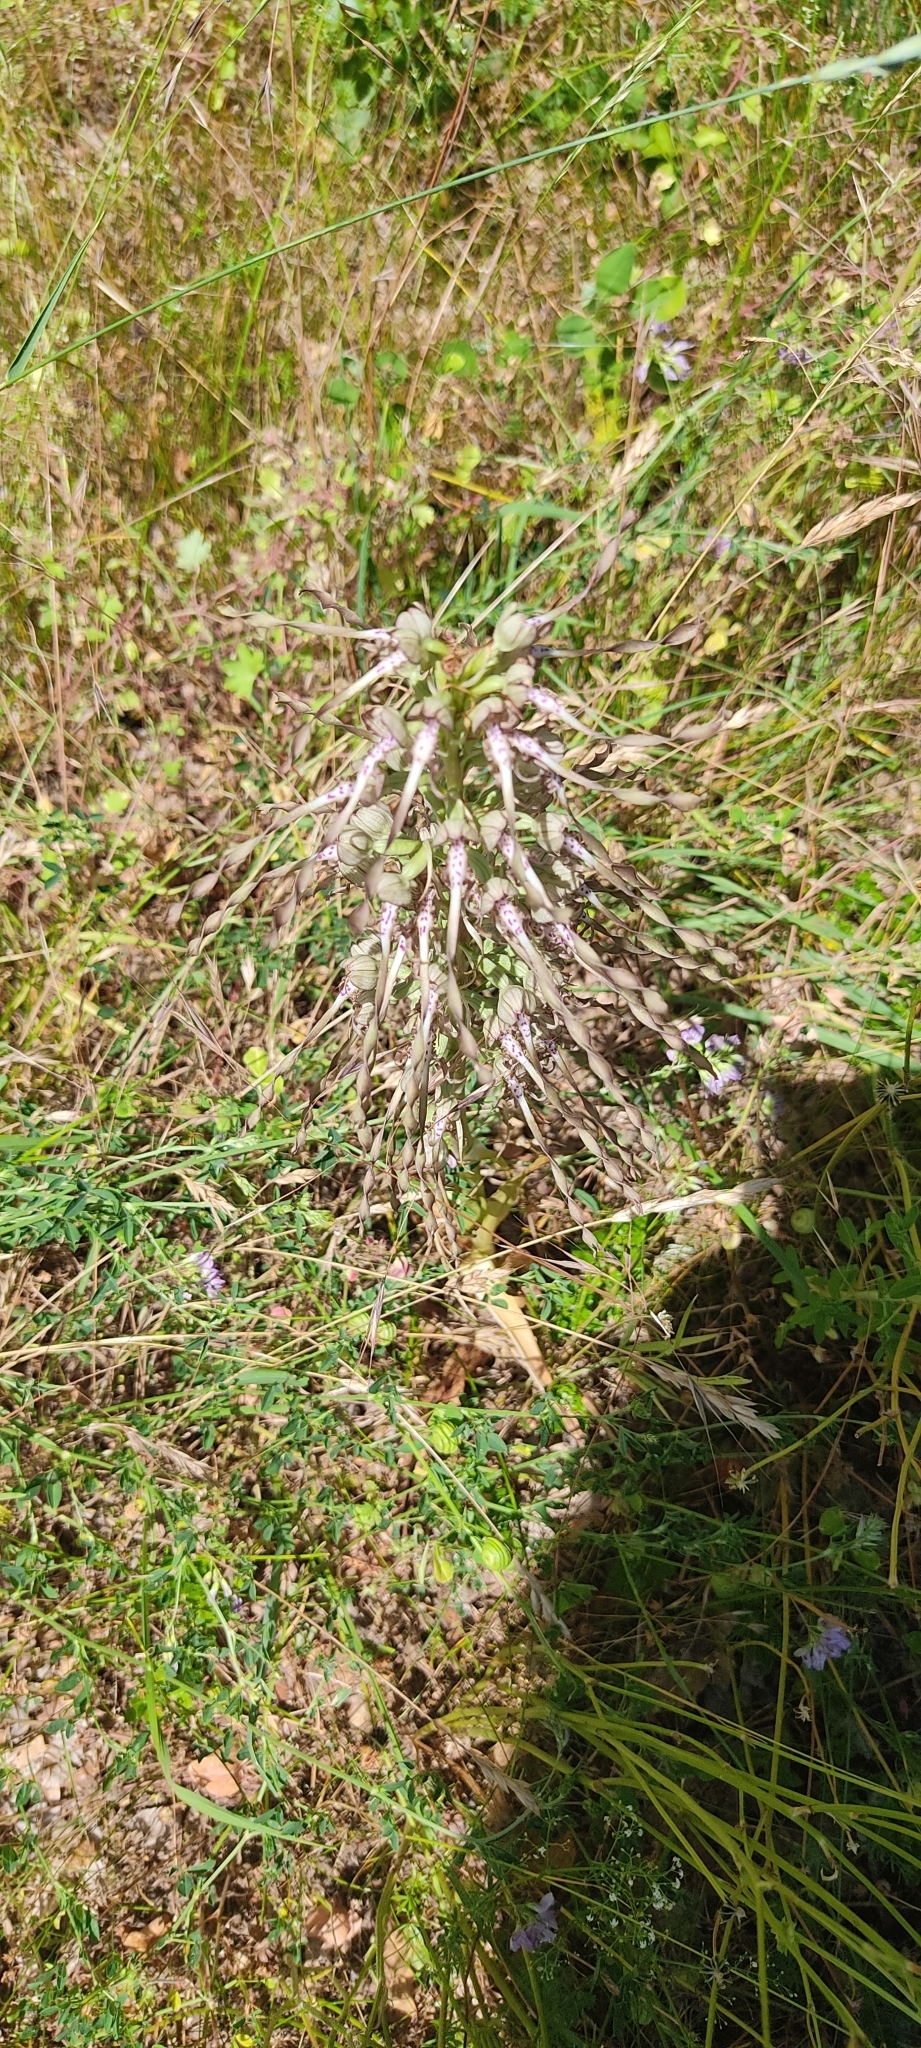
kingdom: Plantae
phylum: Tracheophyta
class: Liliopsida
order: Asparagales
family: Orchidaceae
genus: Himantoglossum
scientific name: Himantoglossum hircinum
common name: Lizard orchid
